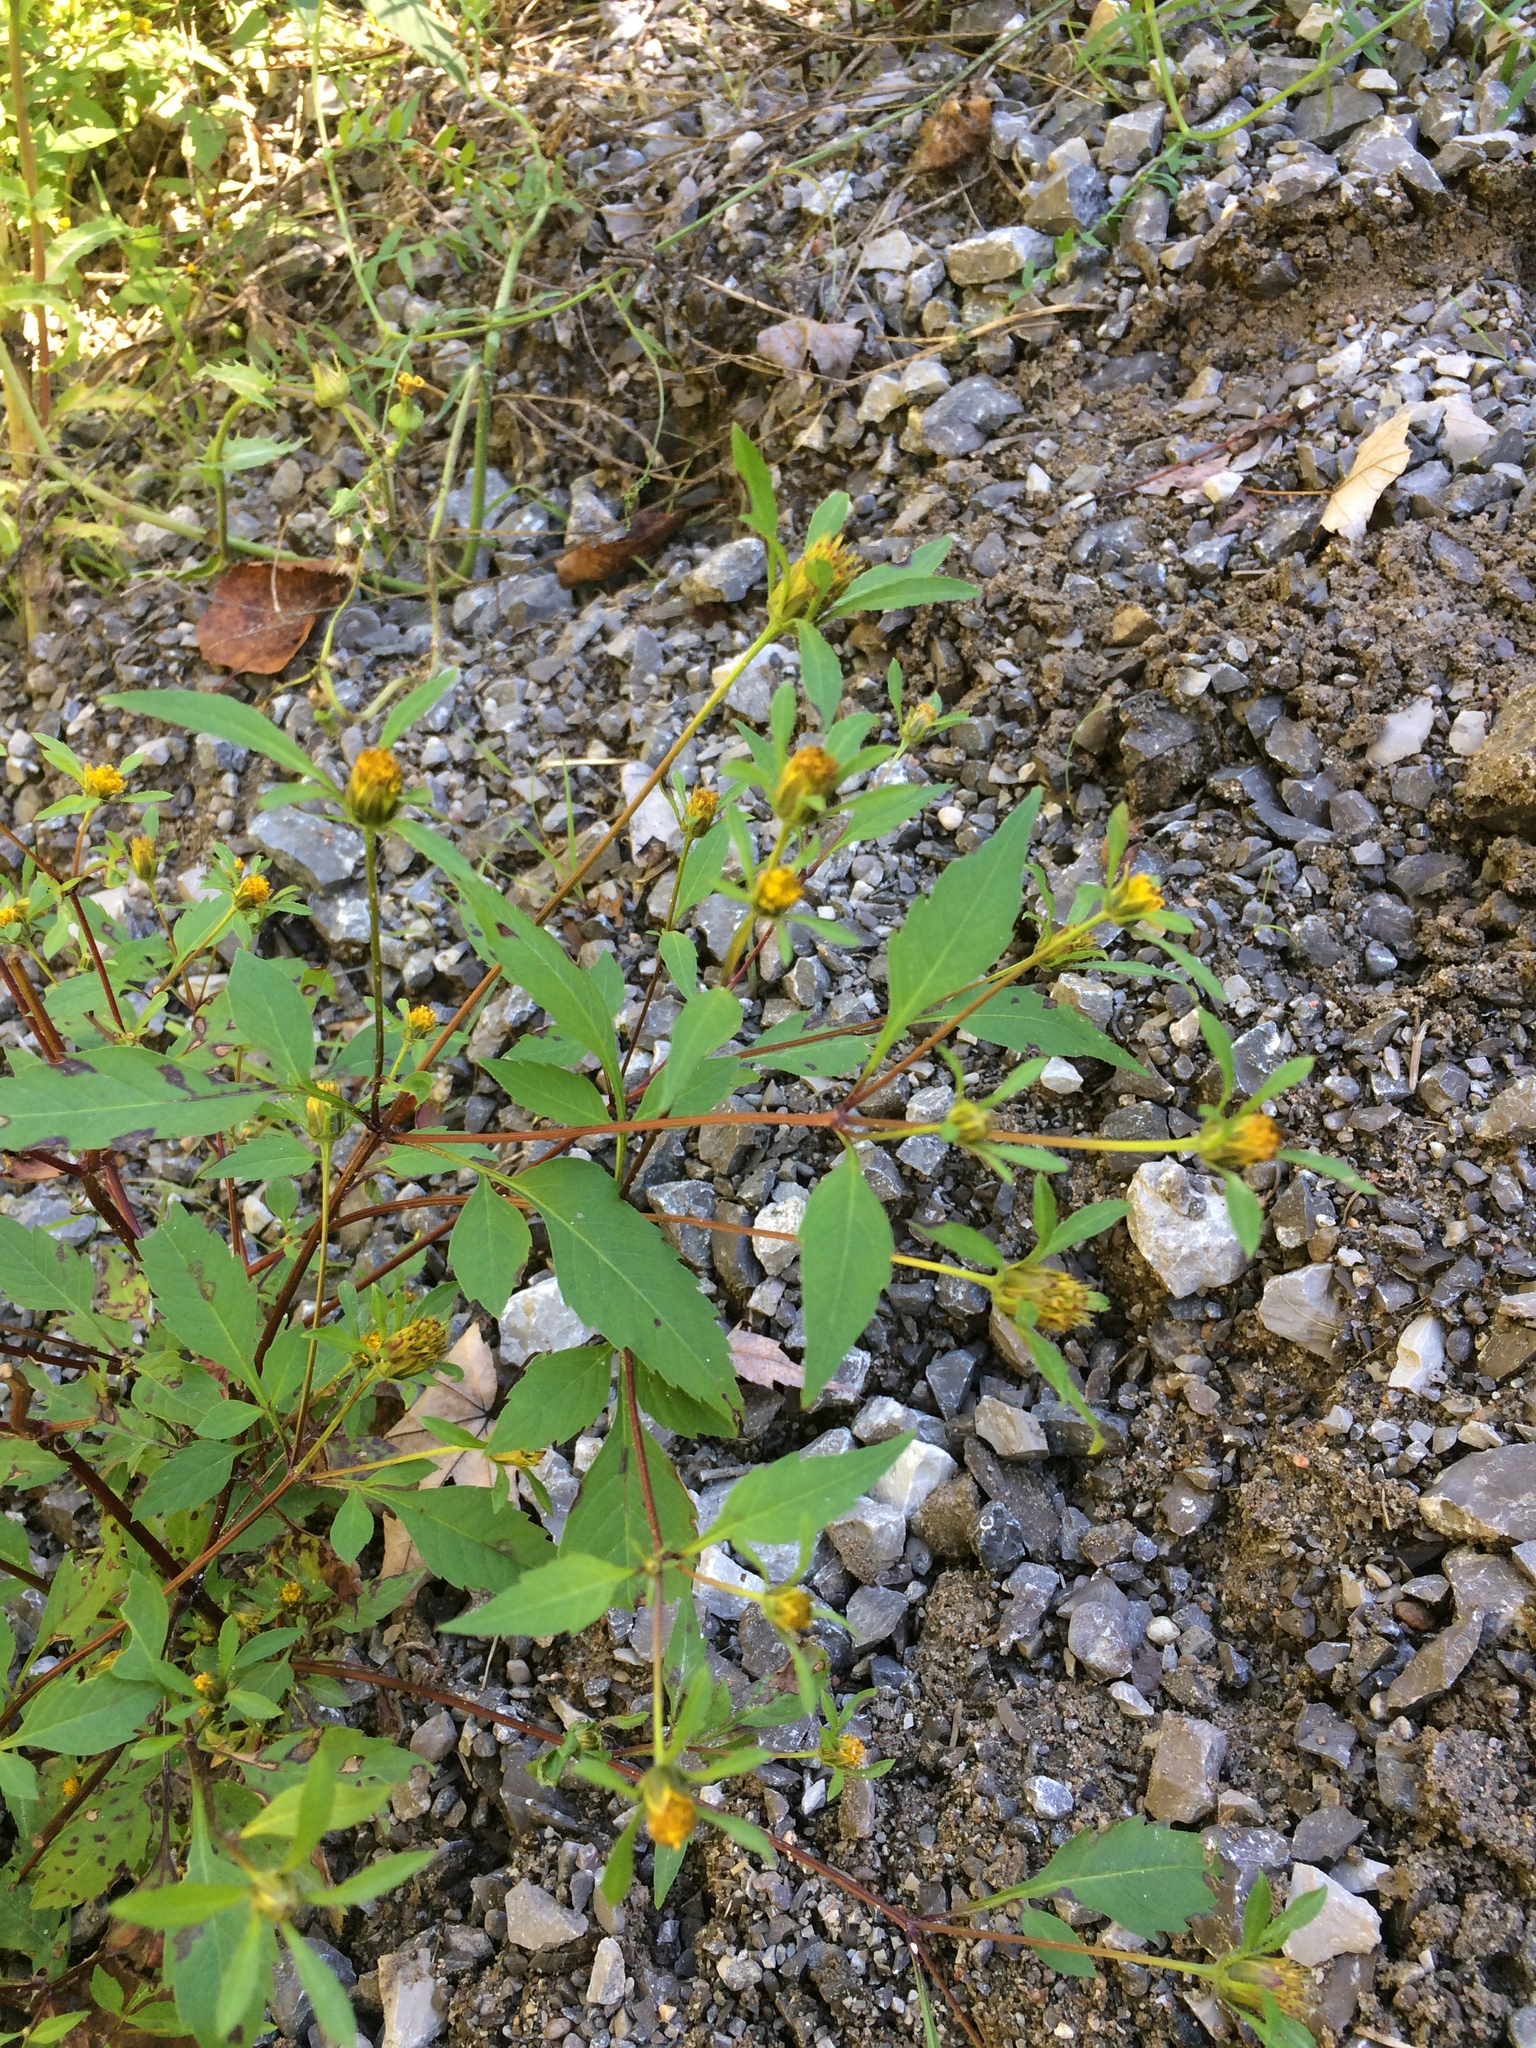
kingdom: Plantae
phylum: Tracheophyta
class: Magnoliopsida
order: Asterales
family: Asteraceae
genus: Bidens
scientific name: Bidens frondosa
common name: Beggarticks
